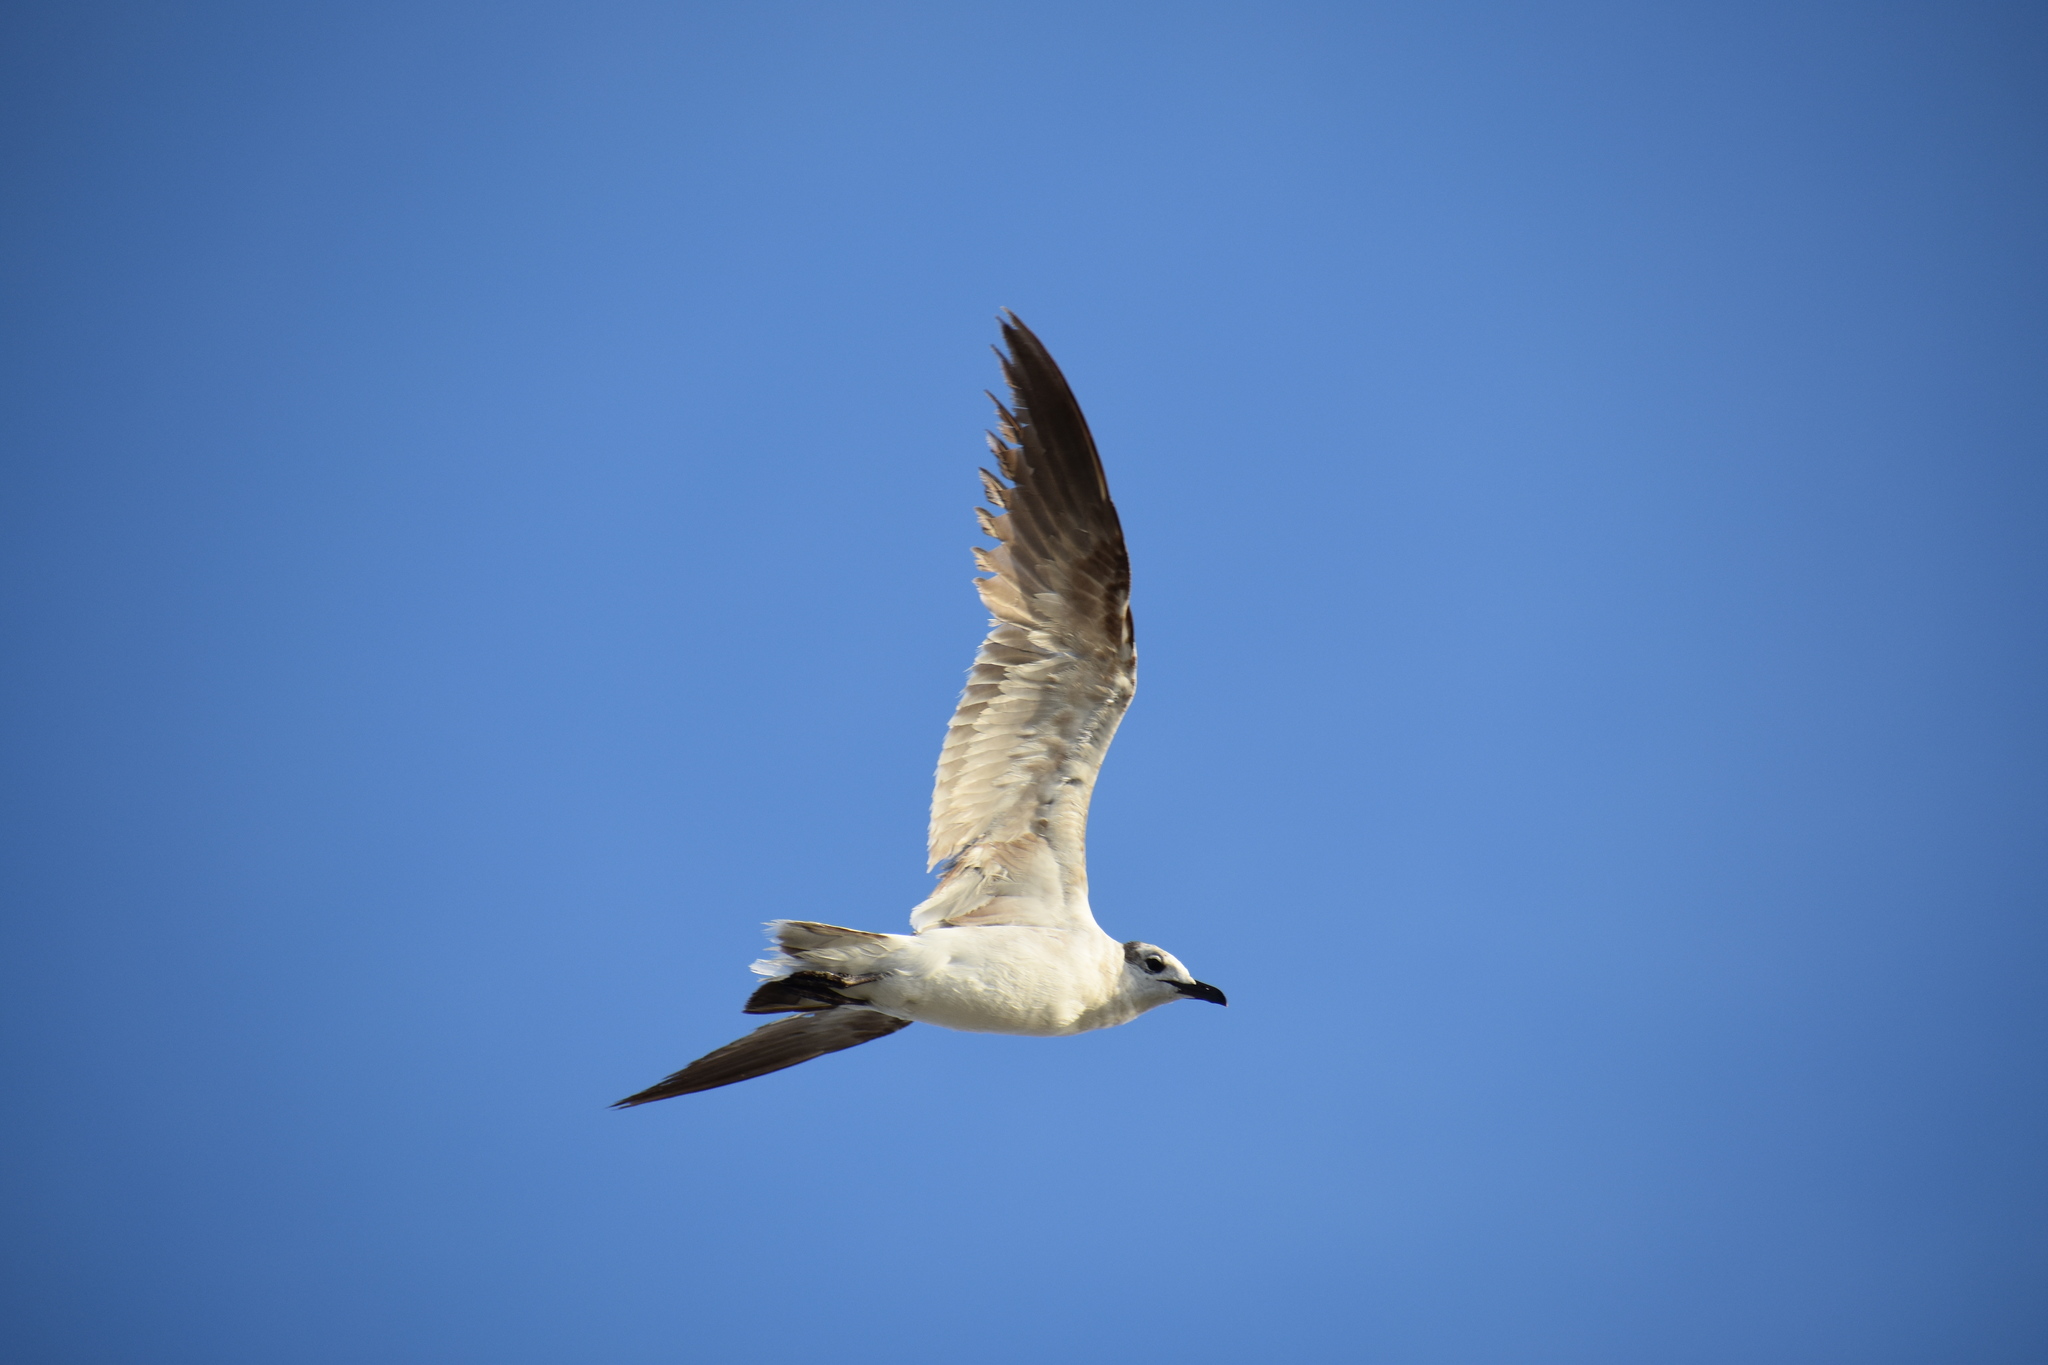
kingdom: Animalia
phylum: Chordata
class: Aves
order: Charadriiformes
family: Laridae
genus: Leucophaeus
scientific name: Leucophaeus atricilla
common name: Laughing gull
